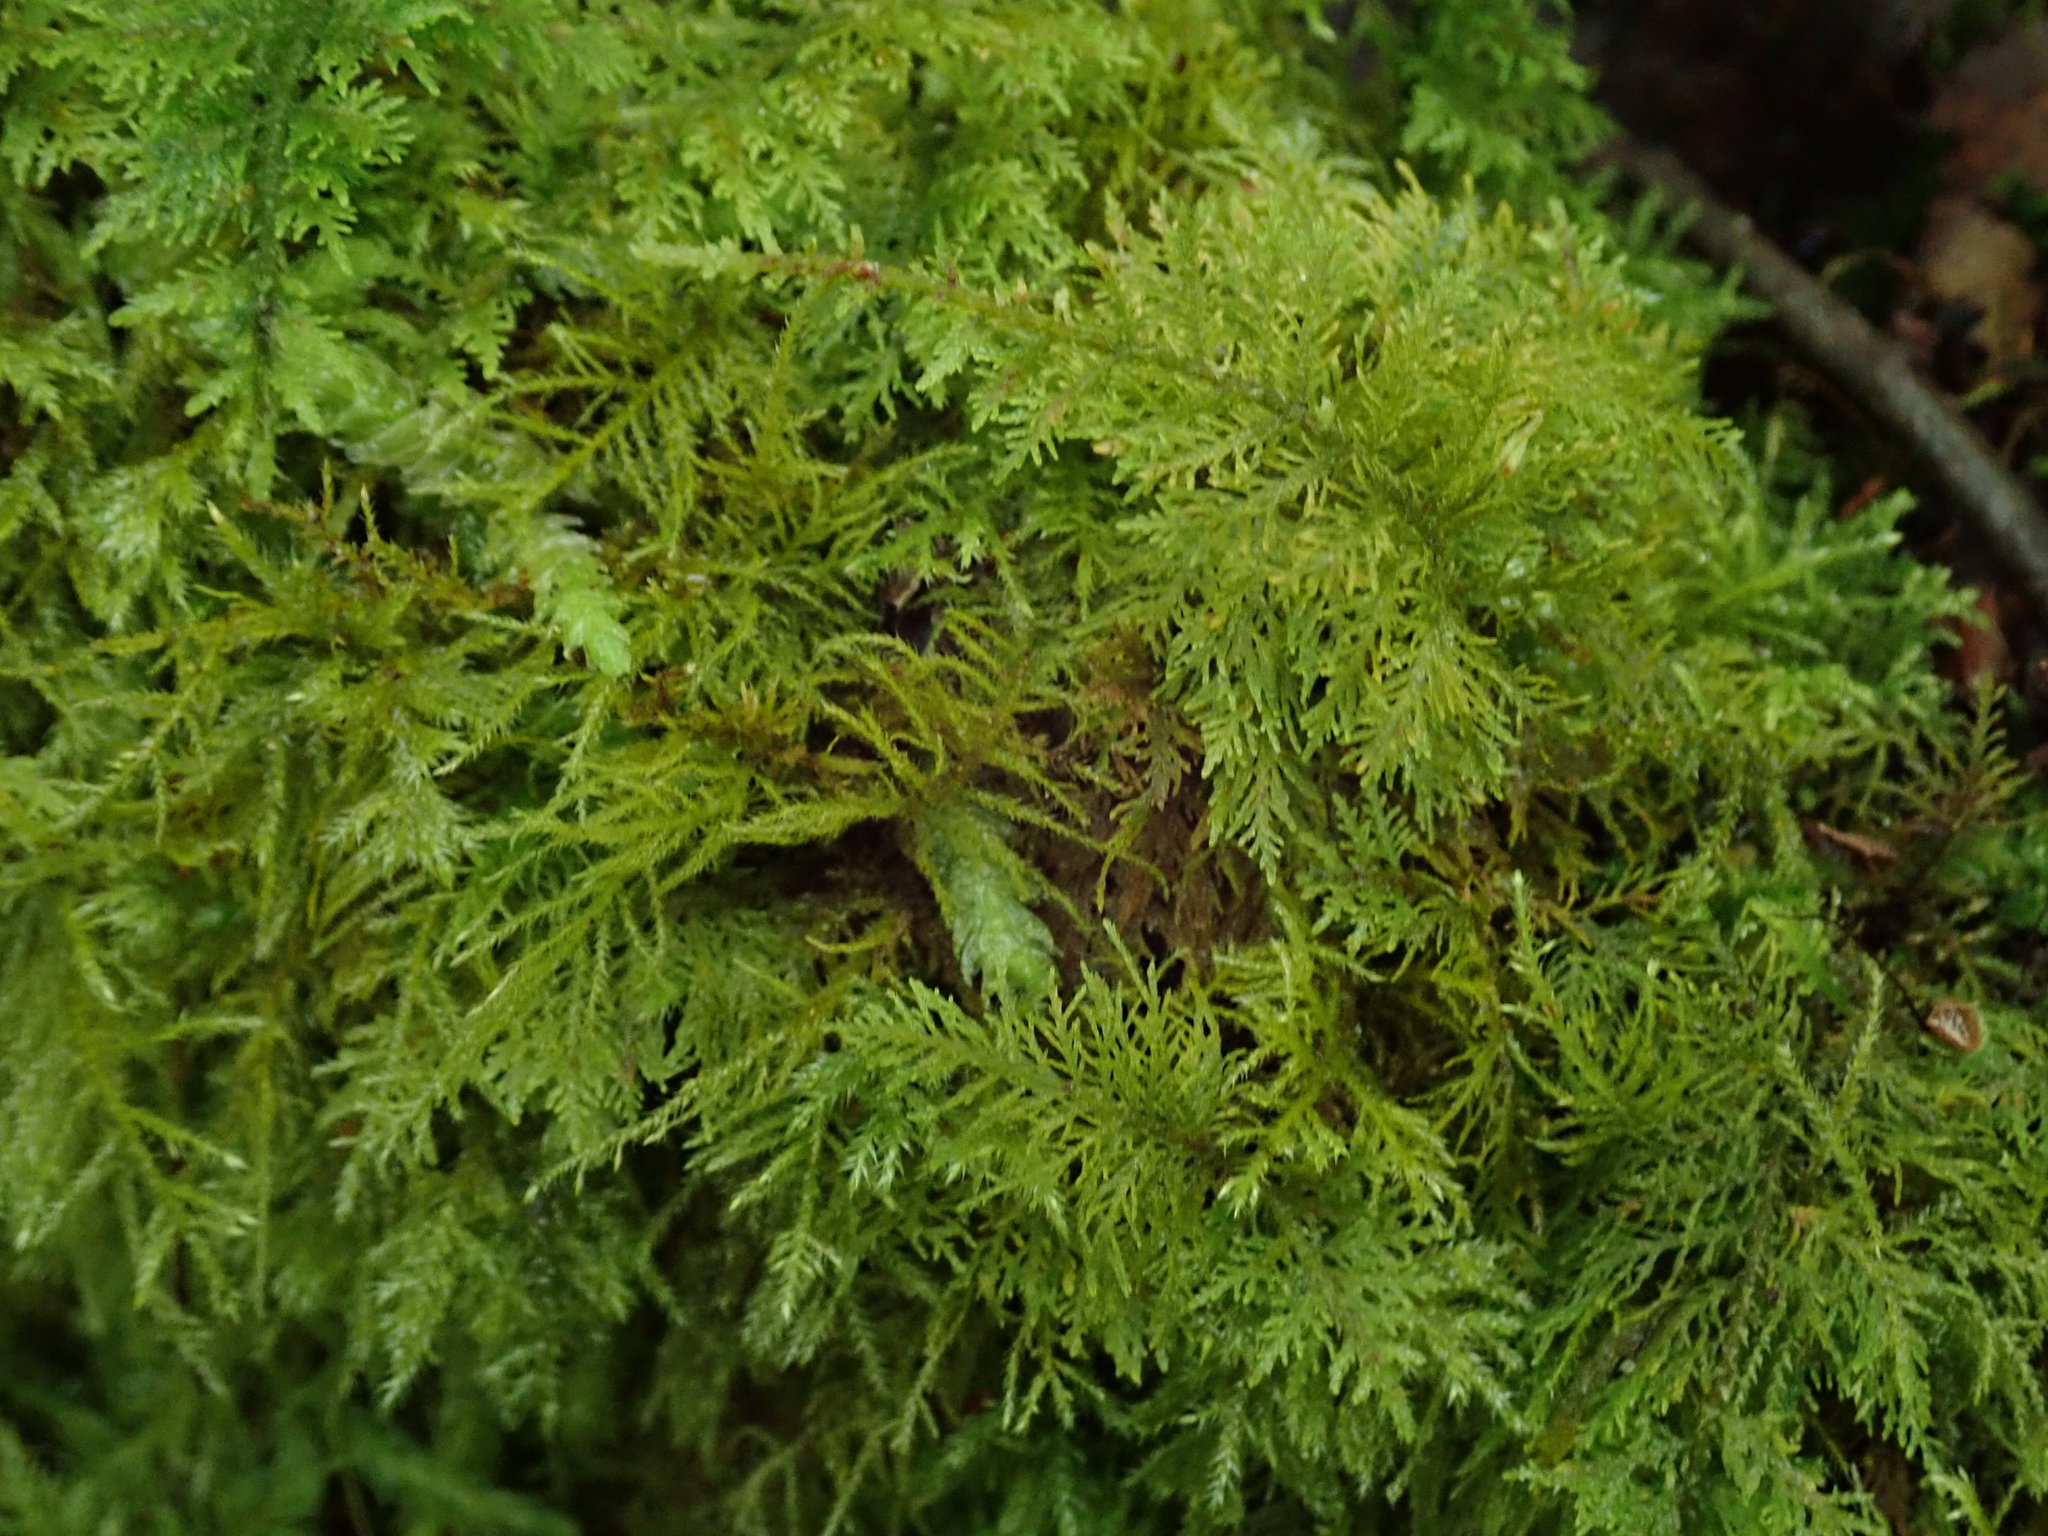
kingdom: Plantae
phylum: Bryophyta
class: Bryopsida
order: Hypnales
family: Thuidiaceae
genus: Thuidium
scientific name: Thuidium tamariscinum
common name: Common tamarisk-moss
